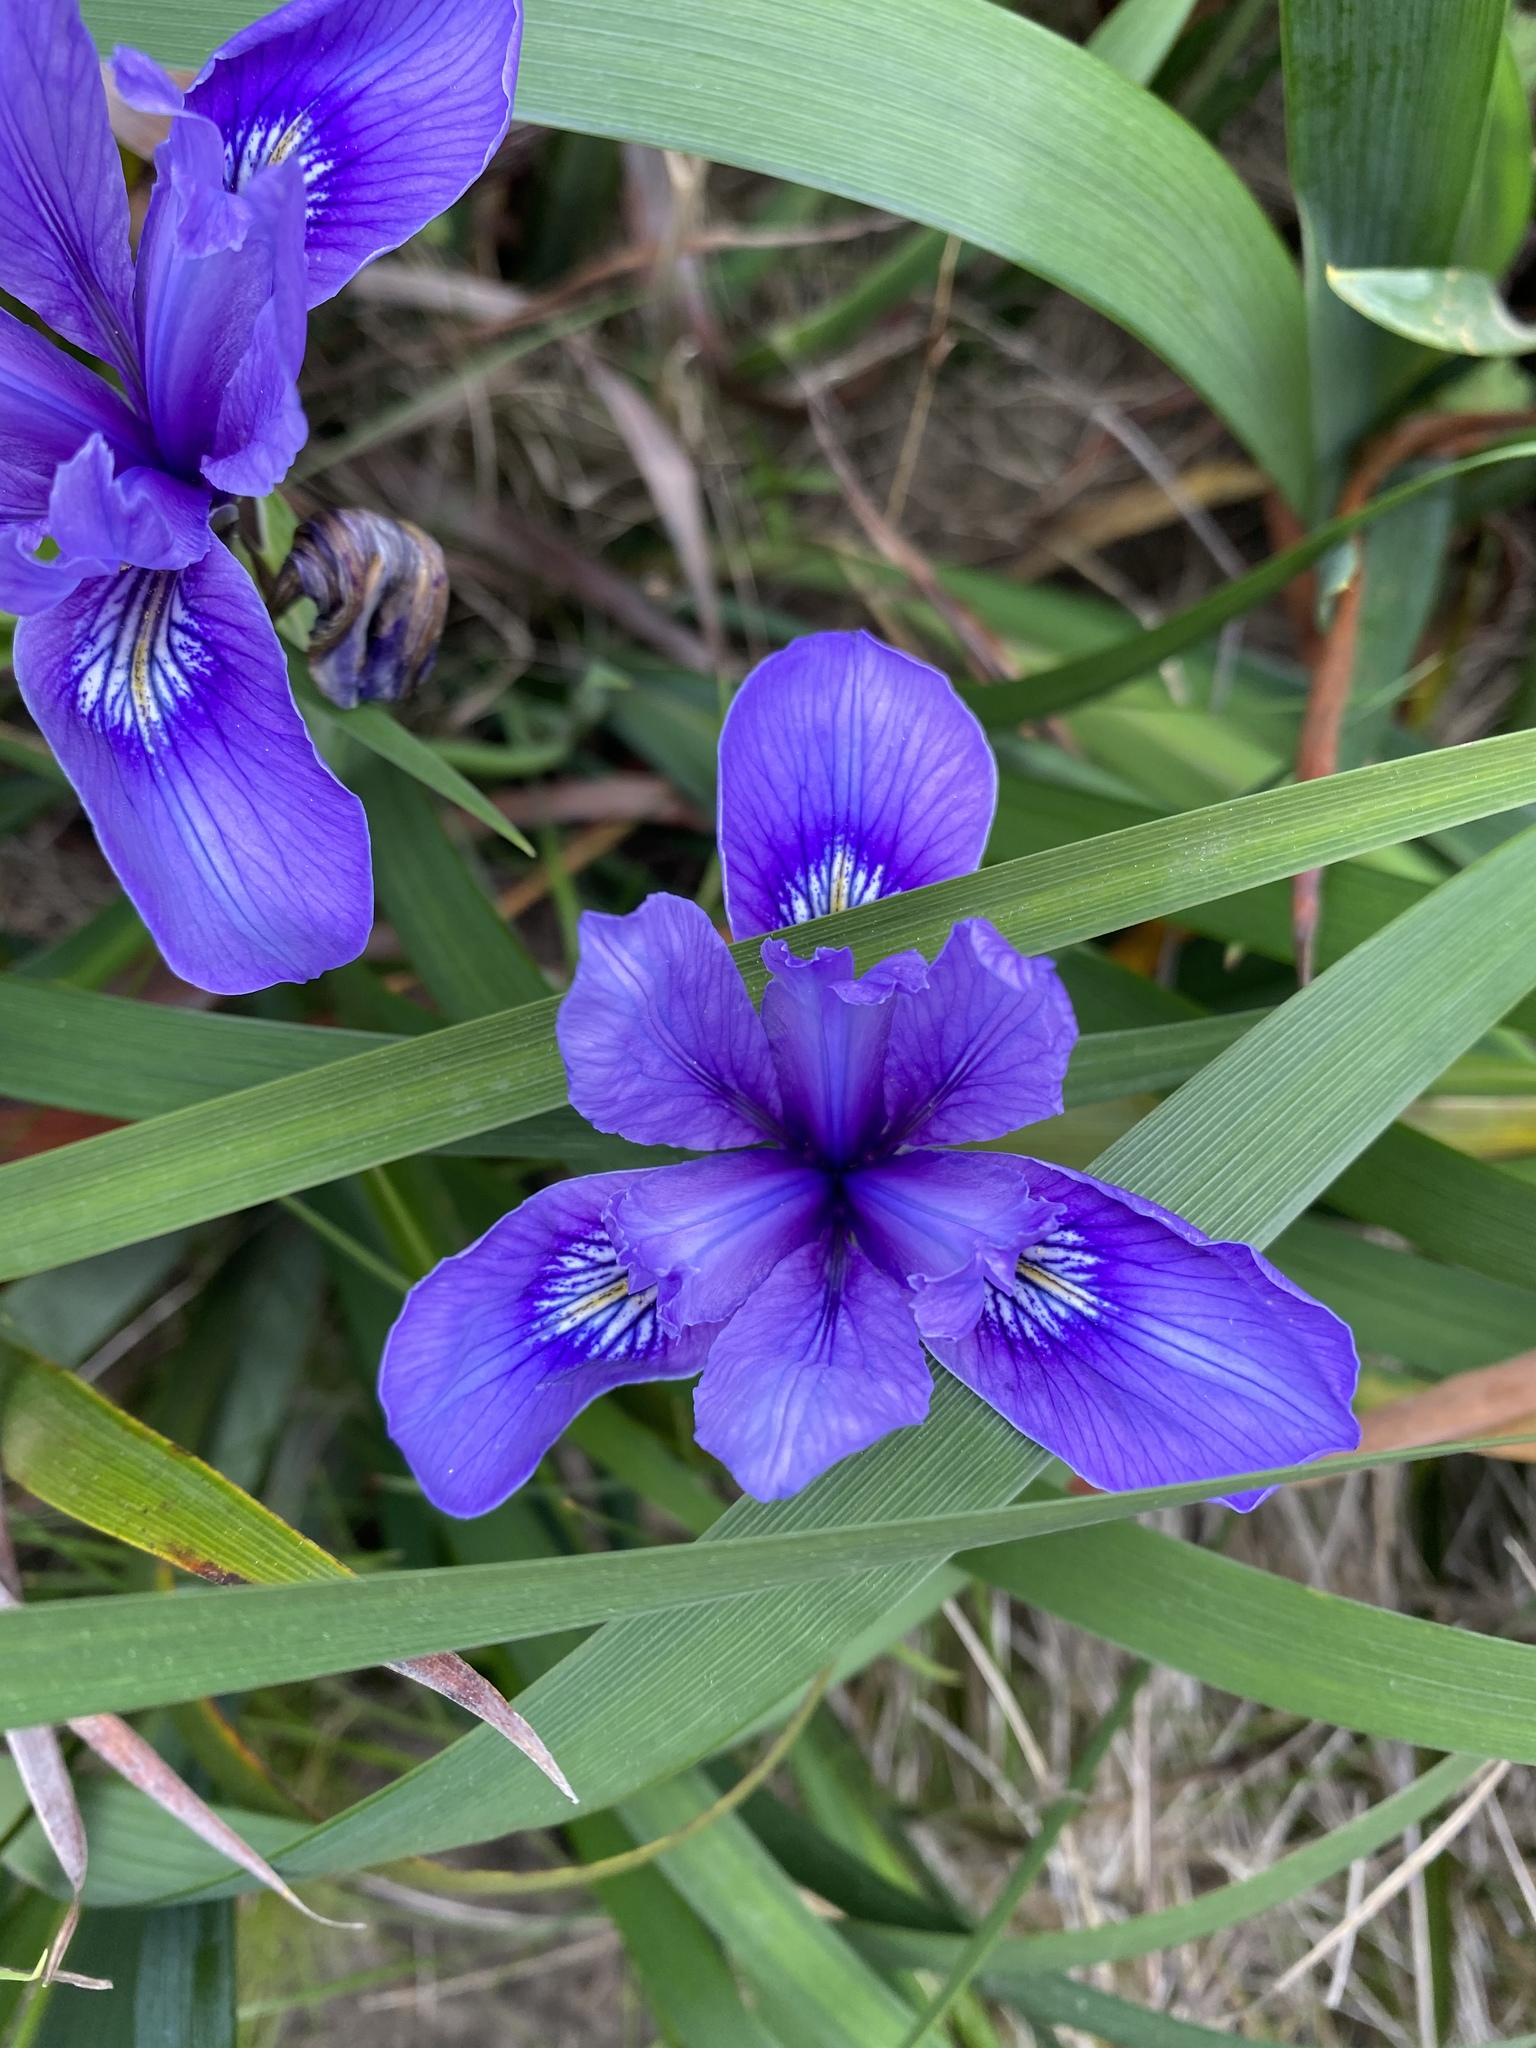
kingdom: Plantae
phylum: Tracheophyta
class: Liliopsida
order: Asparagales
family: Iridaceae
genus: Iris
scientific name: Iris douglasiana
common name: Marin iris
